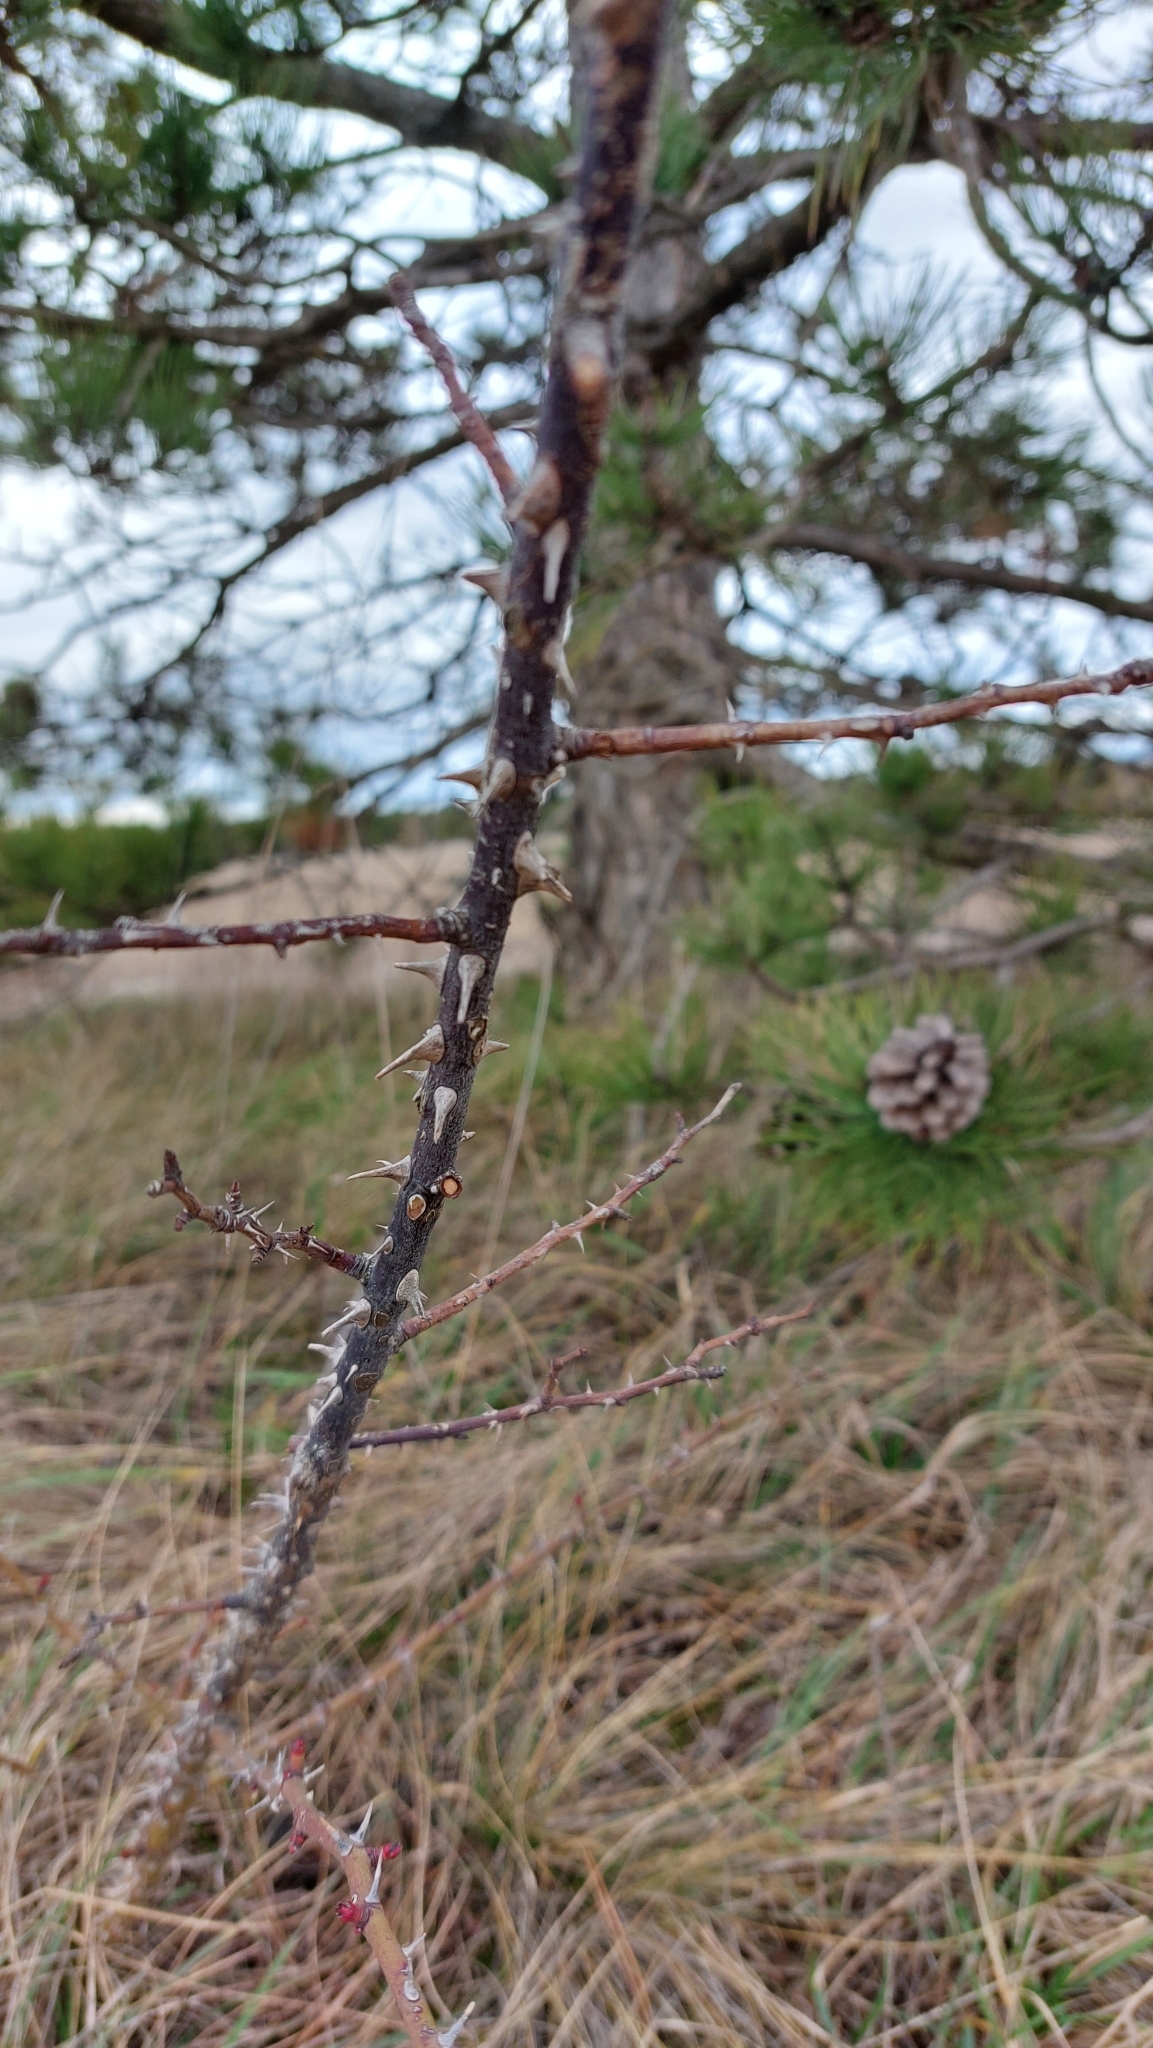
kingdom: Plantae
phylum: Tracheophyta
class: Magnoliopsida
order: Rosales
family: Rosaceae
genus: Rosa
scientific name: Rosa
